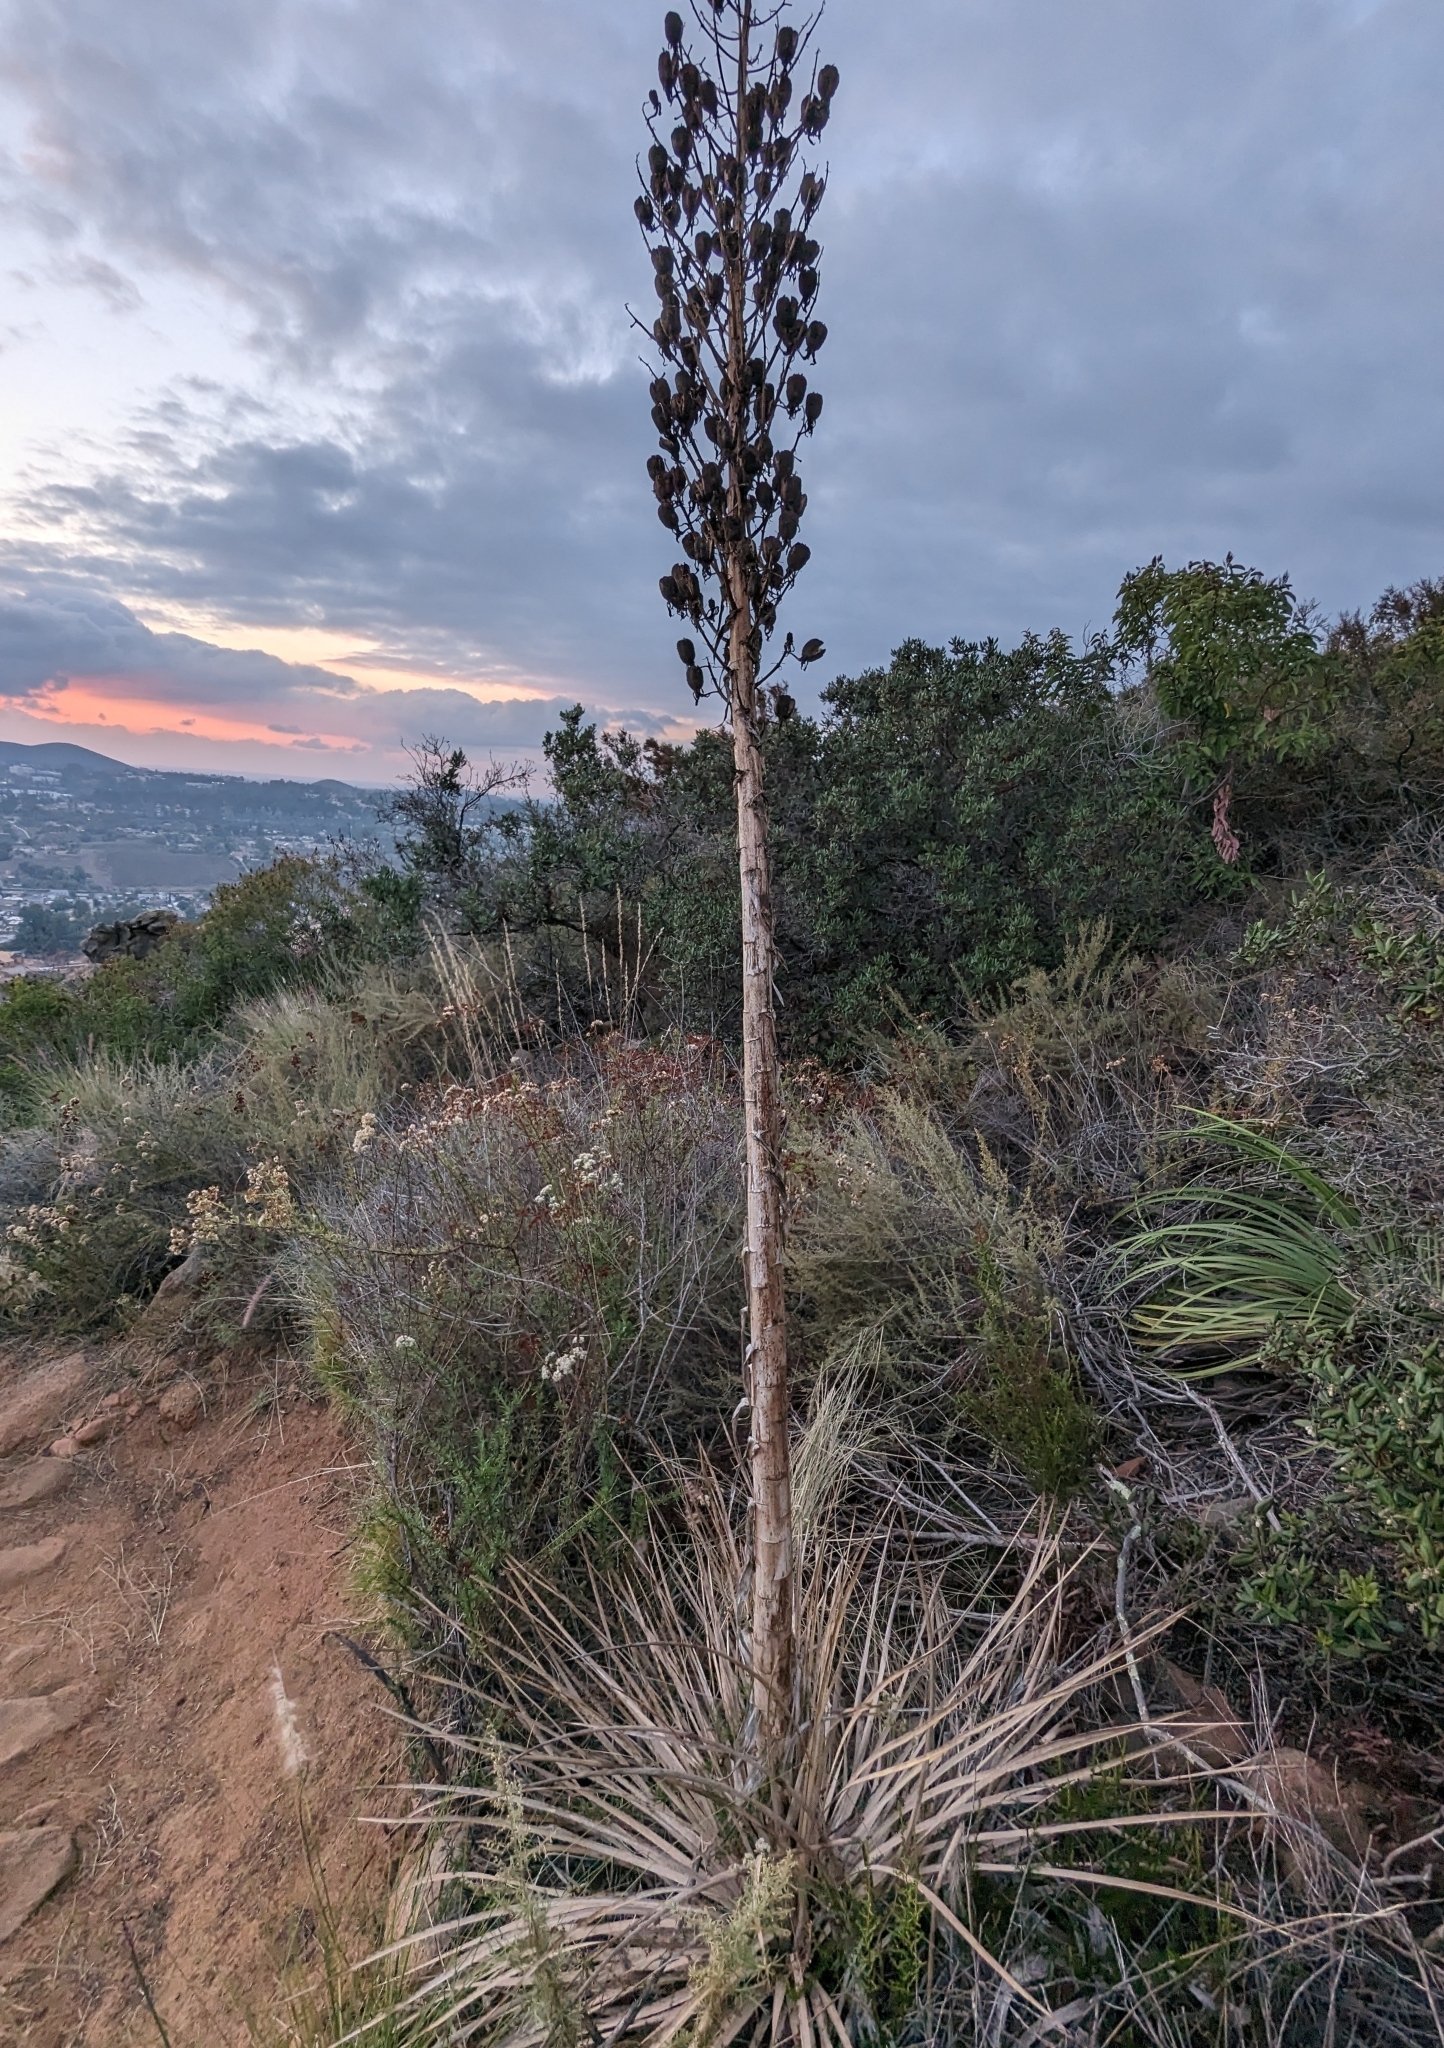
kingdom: Plantae
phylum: Tracheophyta
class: Liliopsida
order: Asparagales
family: Asparagaceae
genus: Hesperoyucca
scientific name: Hesperoyucca whipplei
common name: Our lord's-candle
